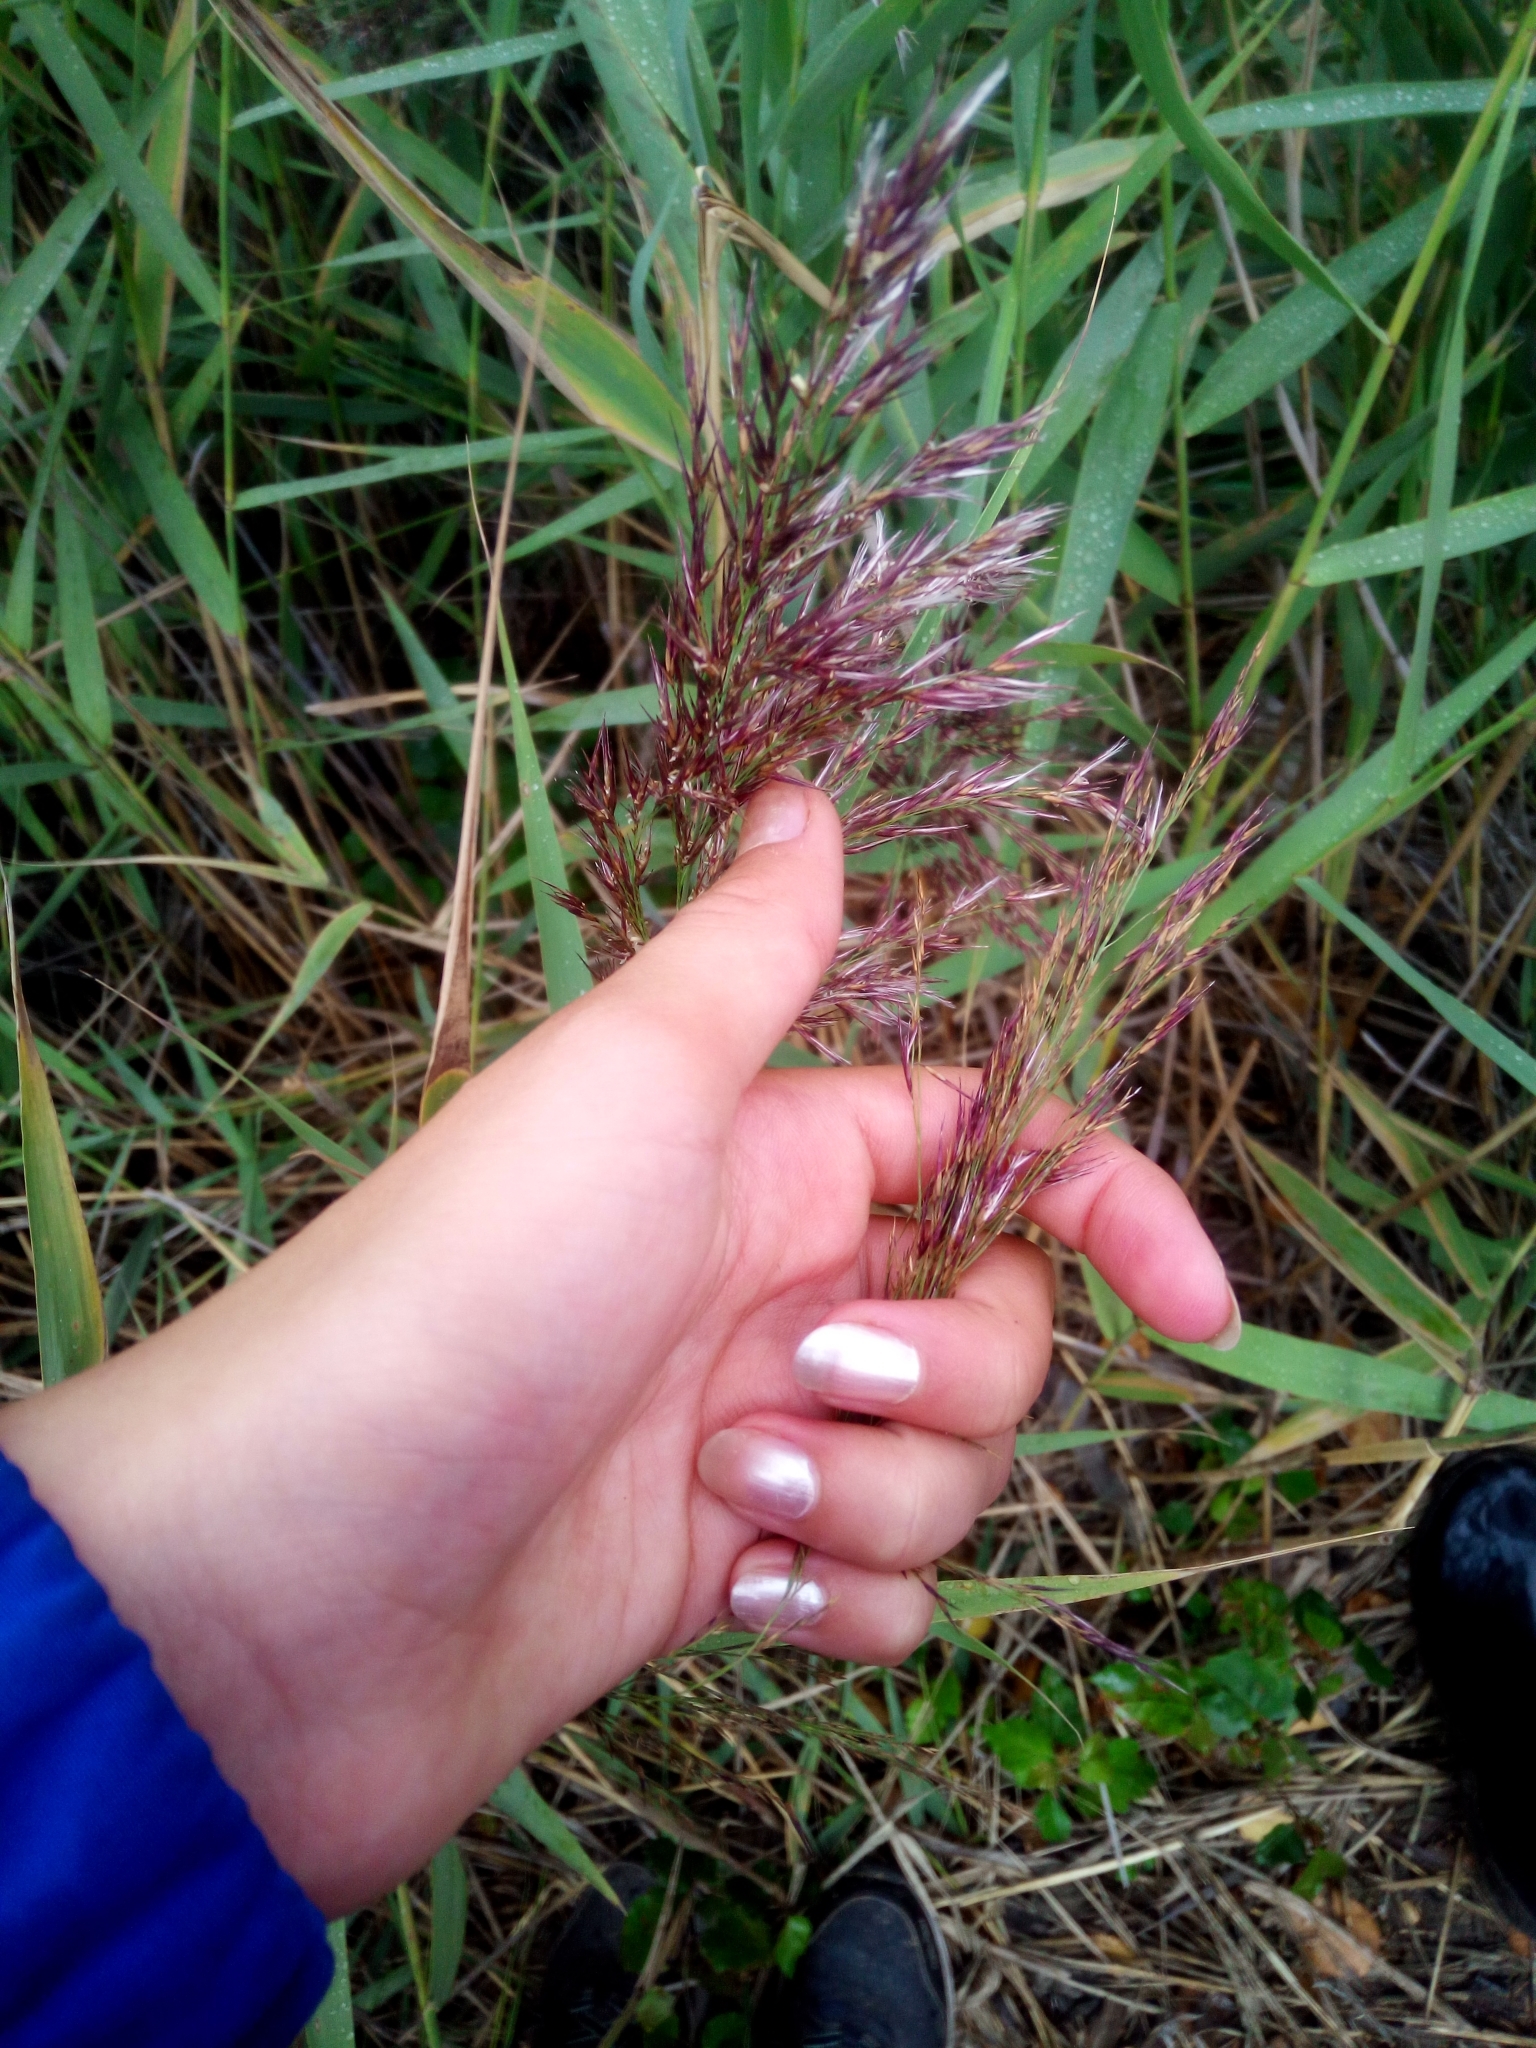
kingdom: Plantae
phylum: Tracheophyta
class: Liliopsida
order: Poales
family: Poaceae
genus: Phragmites
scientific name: Phragmites australis
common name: Common reed
